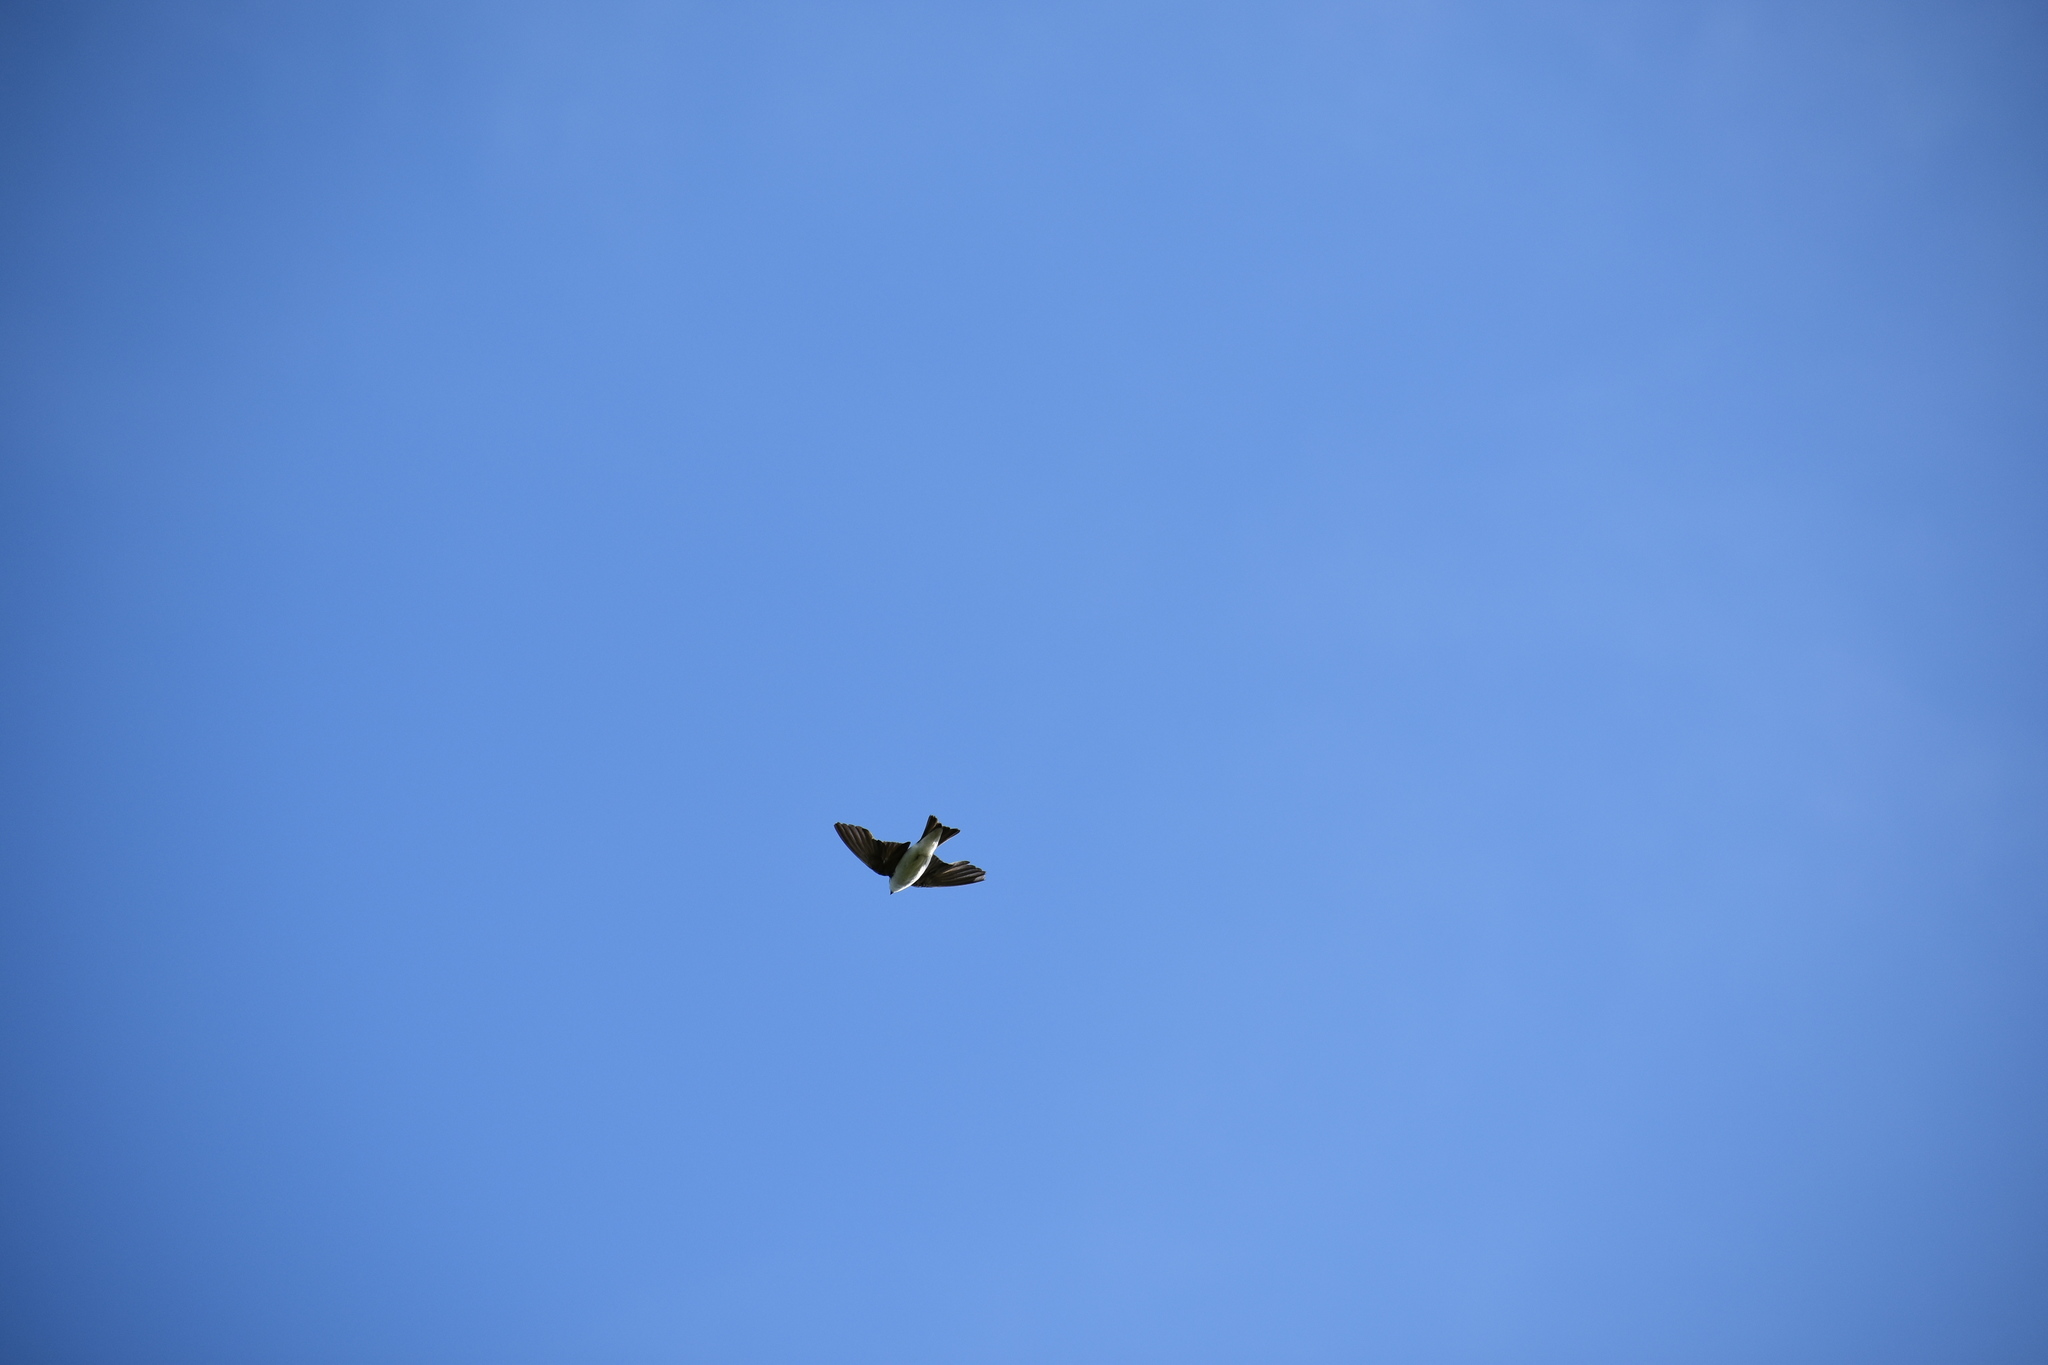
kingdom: Animalia
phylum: Chordata
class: Aves
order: Passeriformes
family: Hirundinidae
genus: Tachycineta
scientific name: Tachycineta bicolor
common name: Tree swallow
